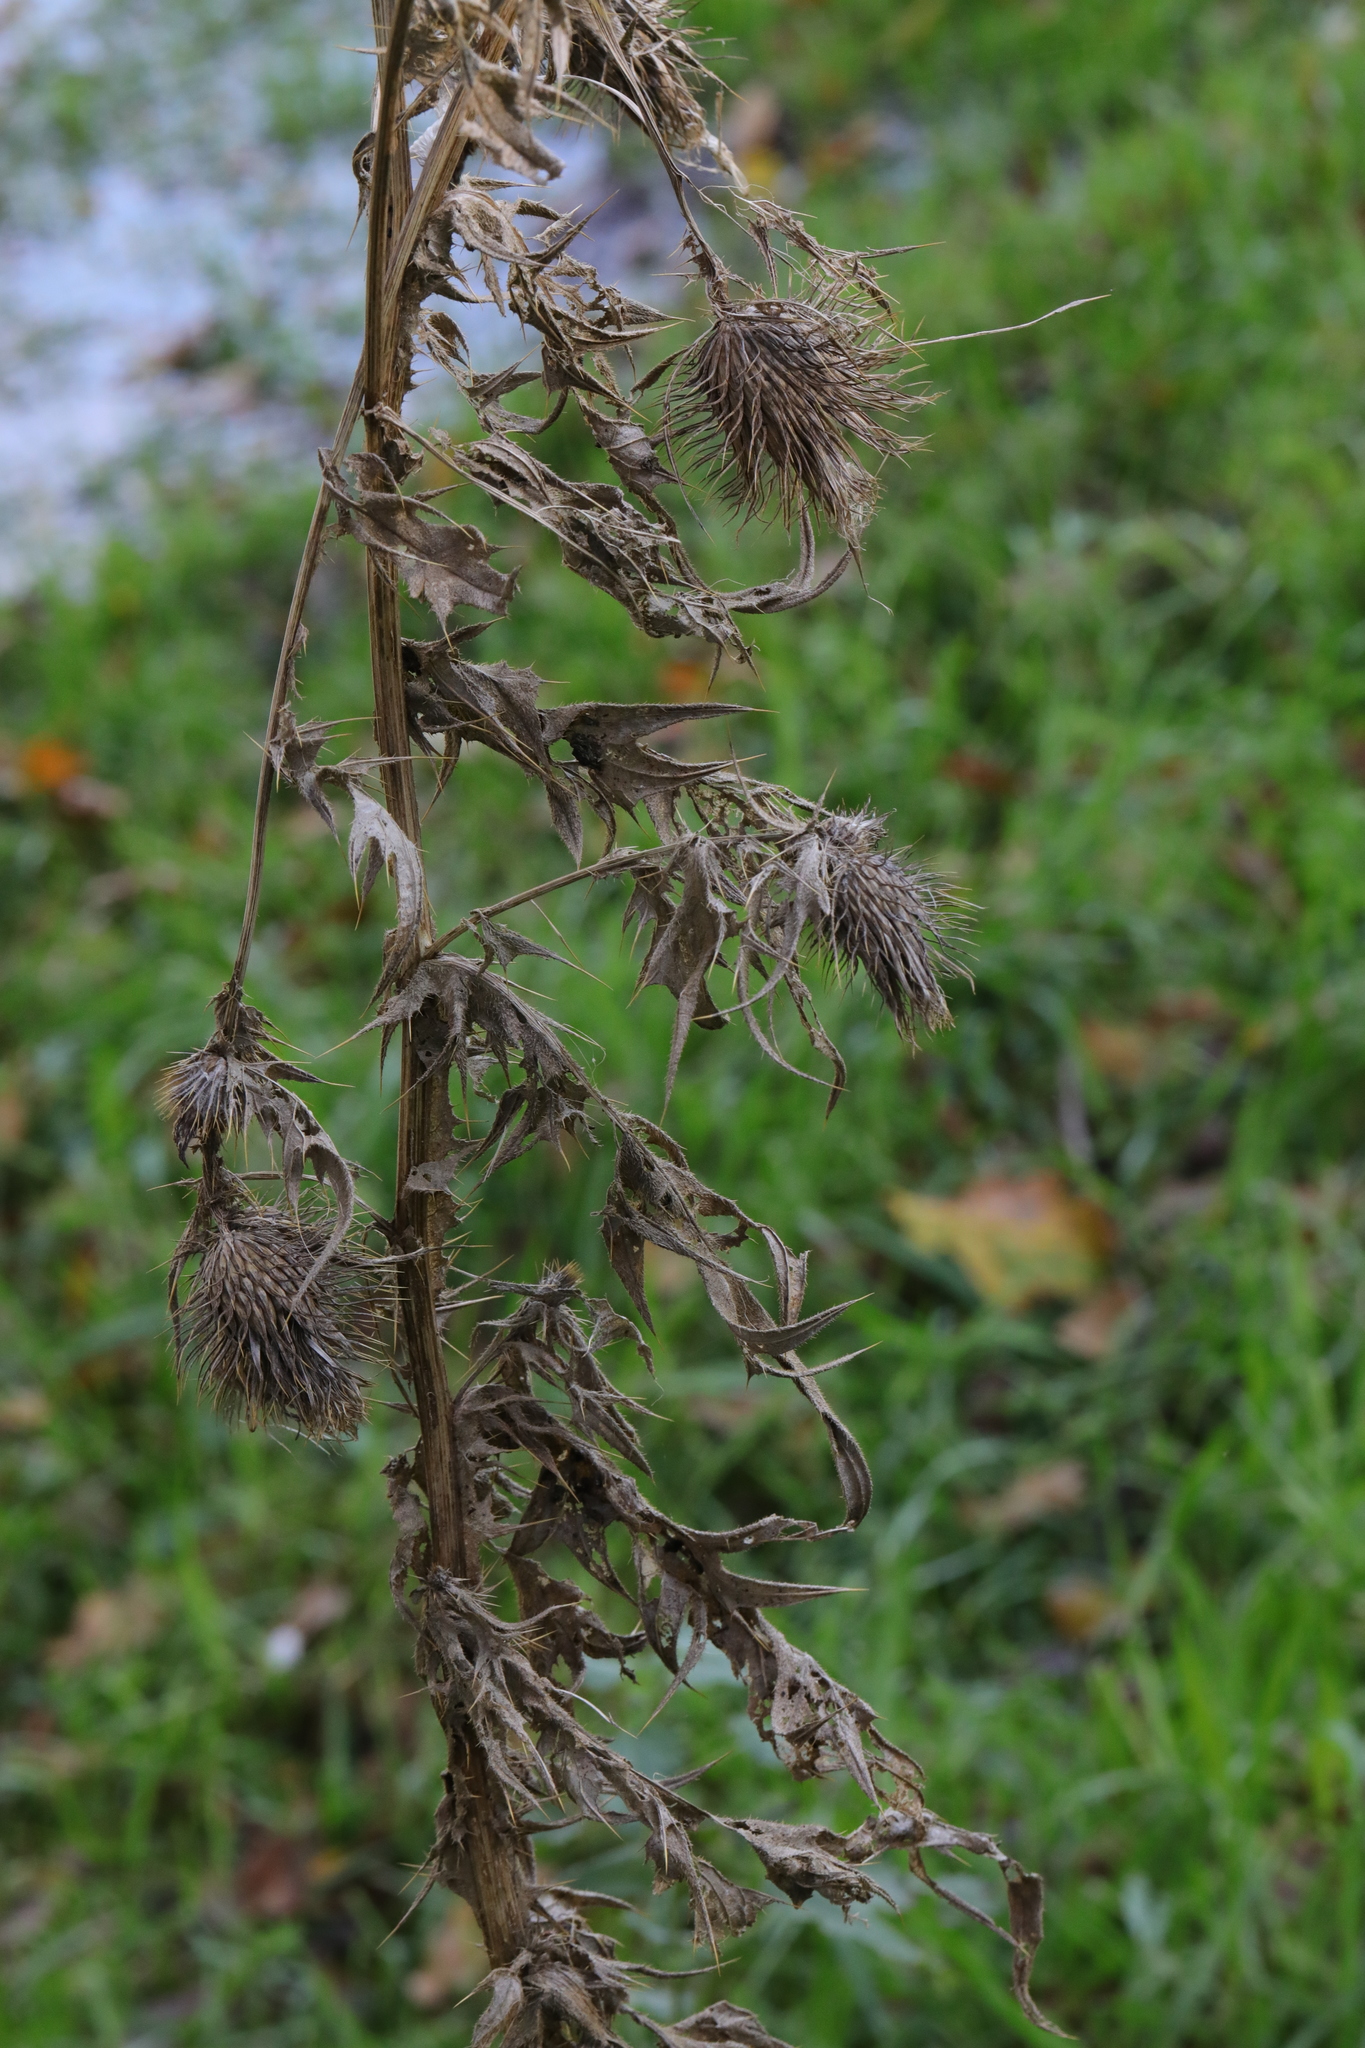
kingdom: Plantae
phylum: Tracheophyta
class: Magnoliopsida
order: Asterales
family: Asteraceae
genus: Cirsium
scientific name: Cirsium vulgare
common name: Bull thistle
